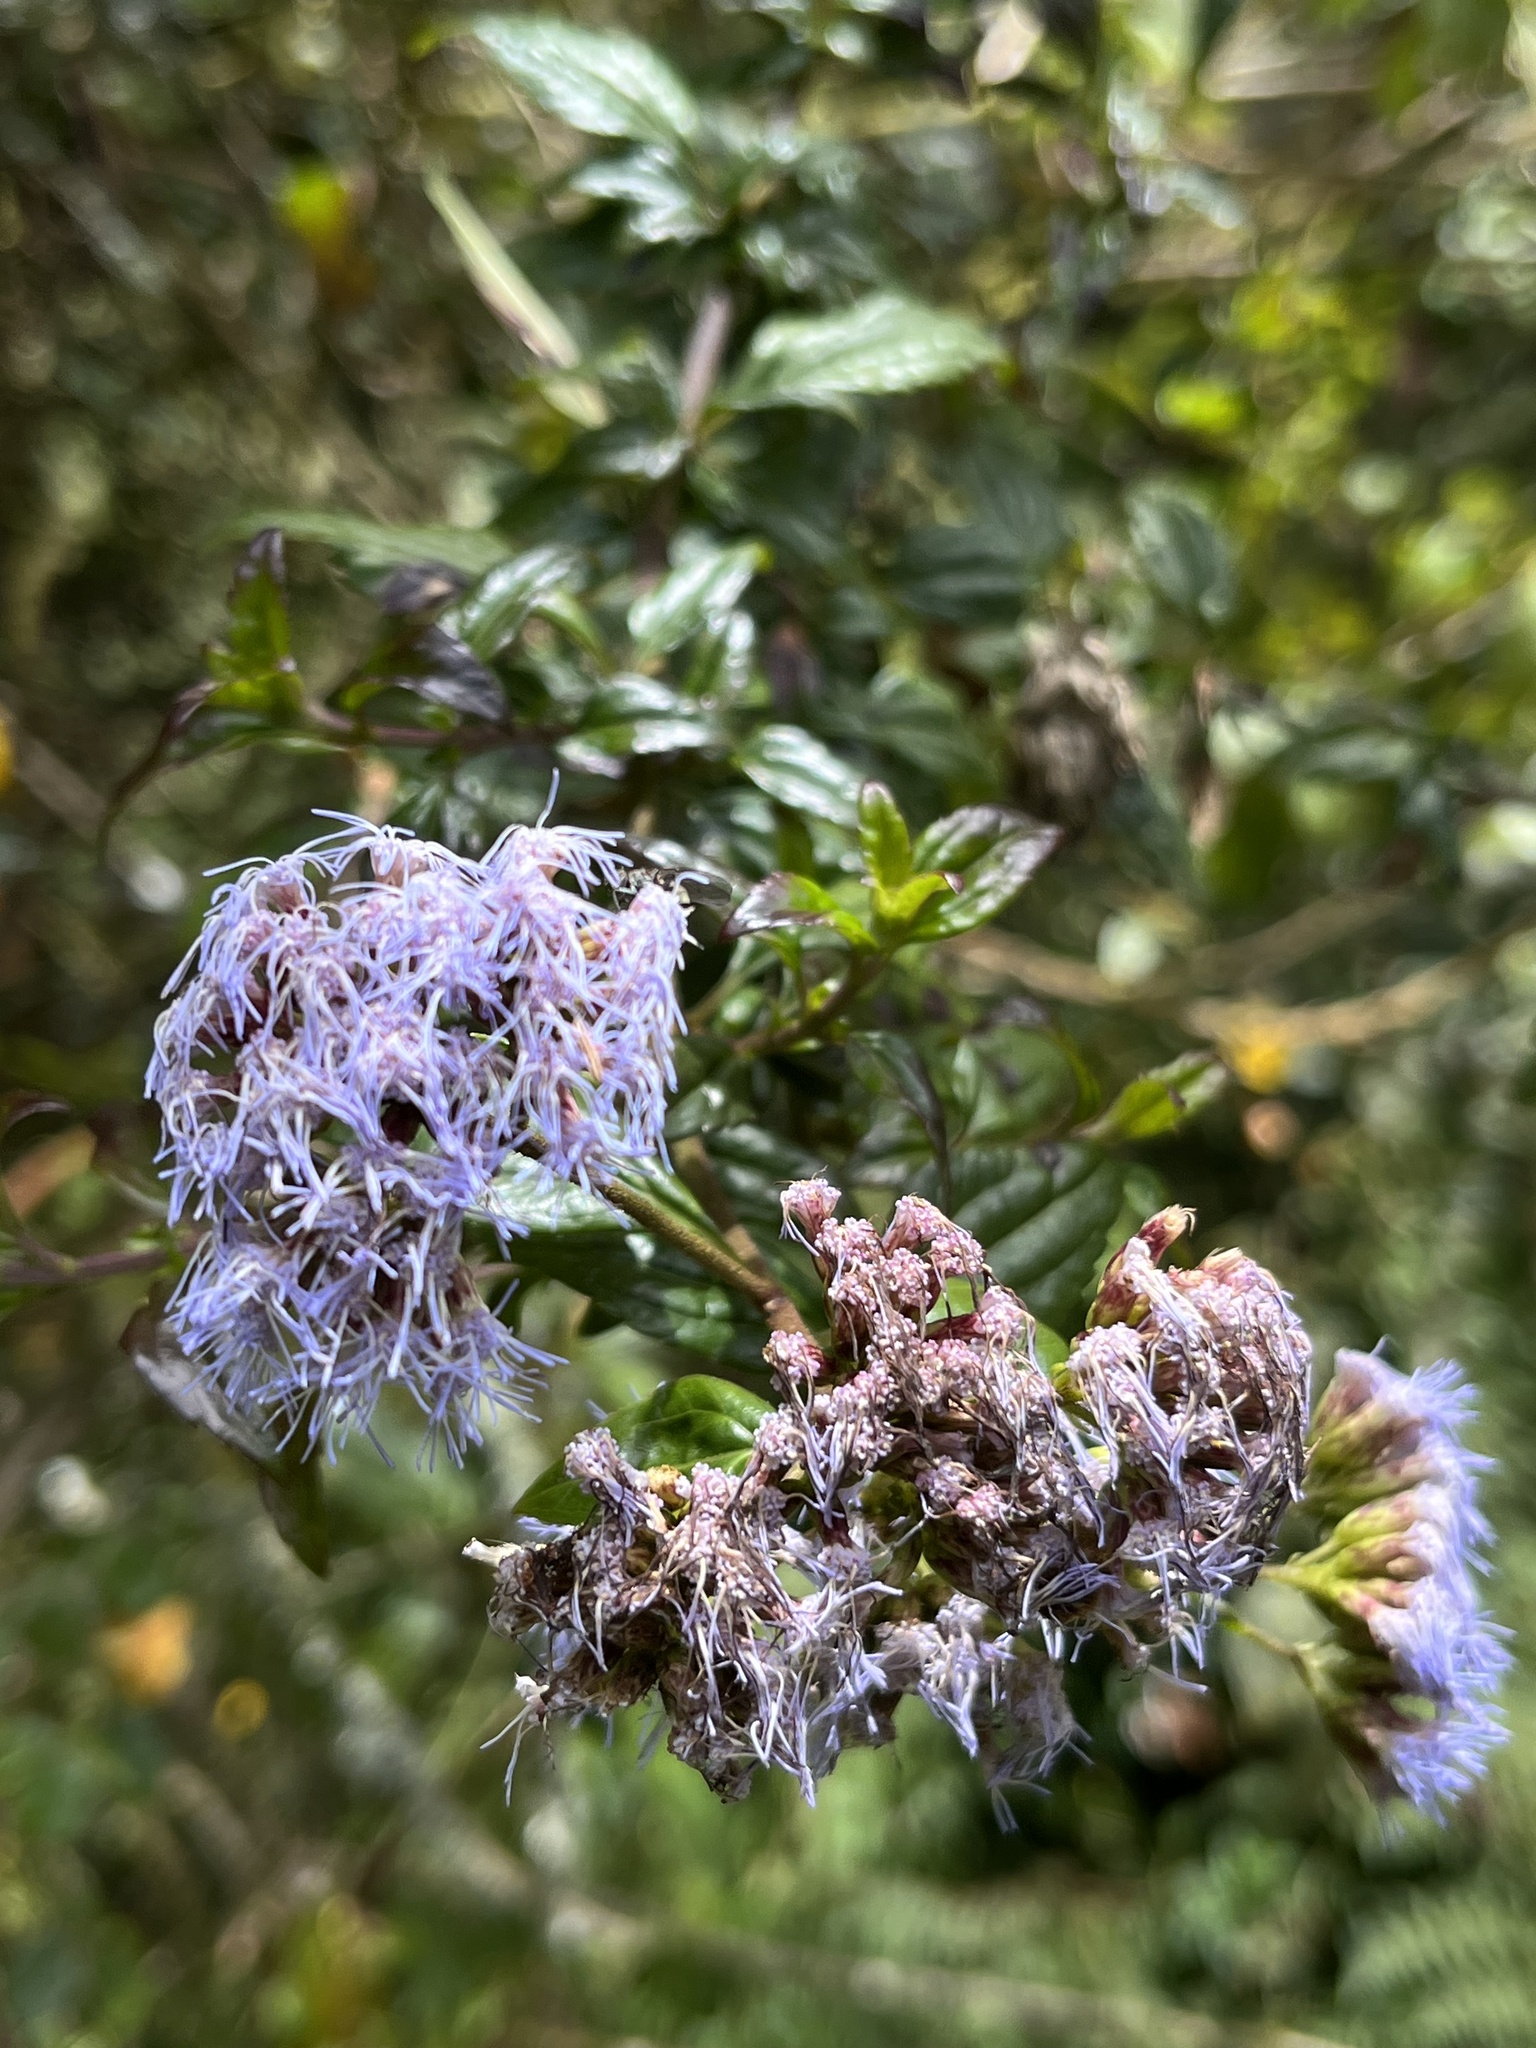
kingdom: Plantae
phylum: Tracheophyta
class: Magnoliopsida
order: Asterales
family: Asteraceae
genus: Asplundianthus
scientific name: Asplundianthus arcuans
